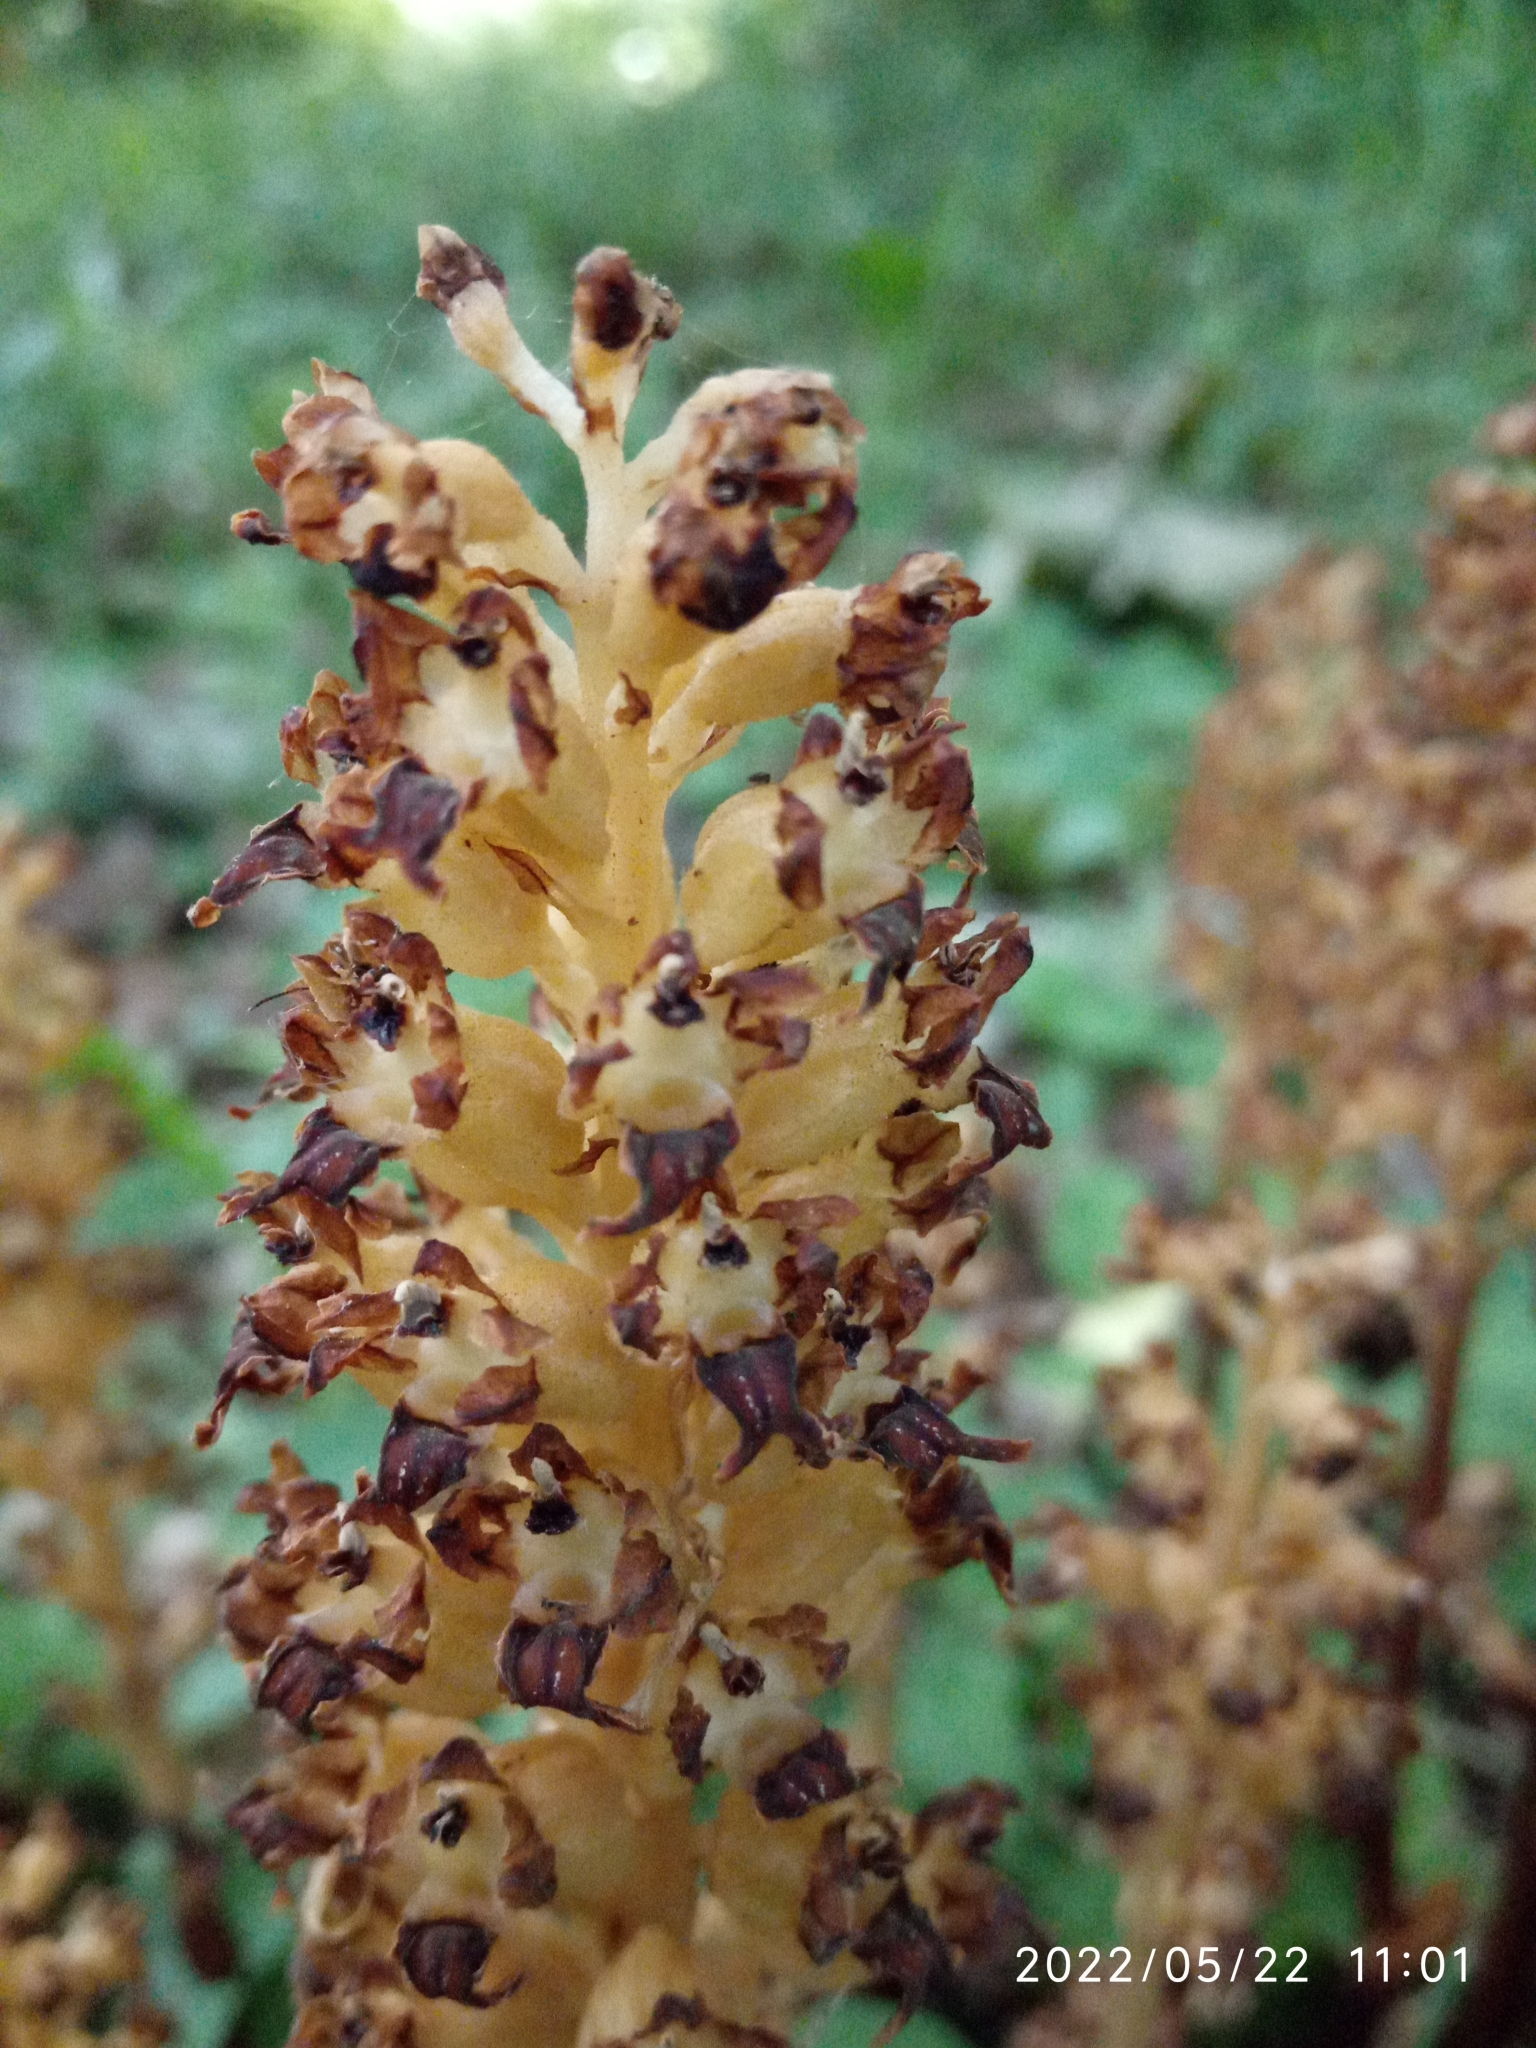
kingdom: Plantae
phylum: Tracheophyta
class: Liliopsida
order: Asparagales
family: Orchidaceae
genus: Neottia
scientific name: Neottia nidus-avis
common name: Bird's-nest orchid
